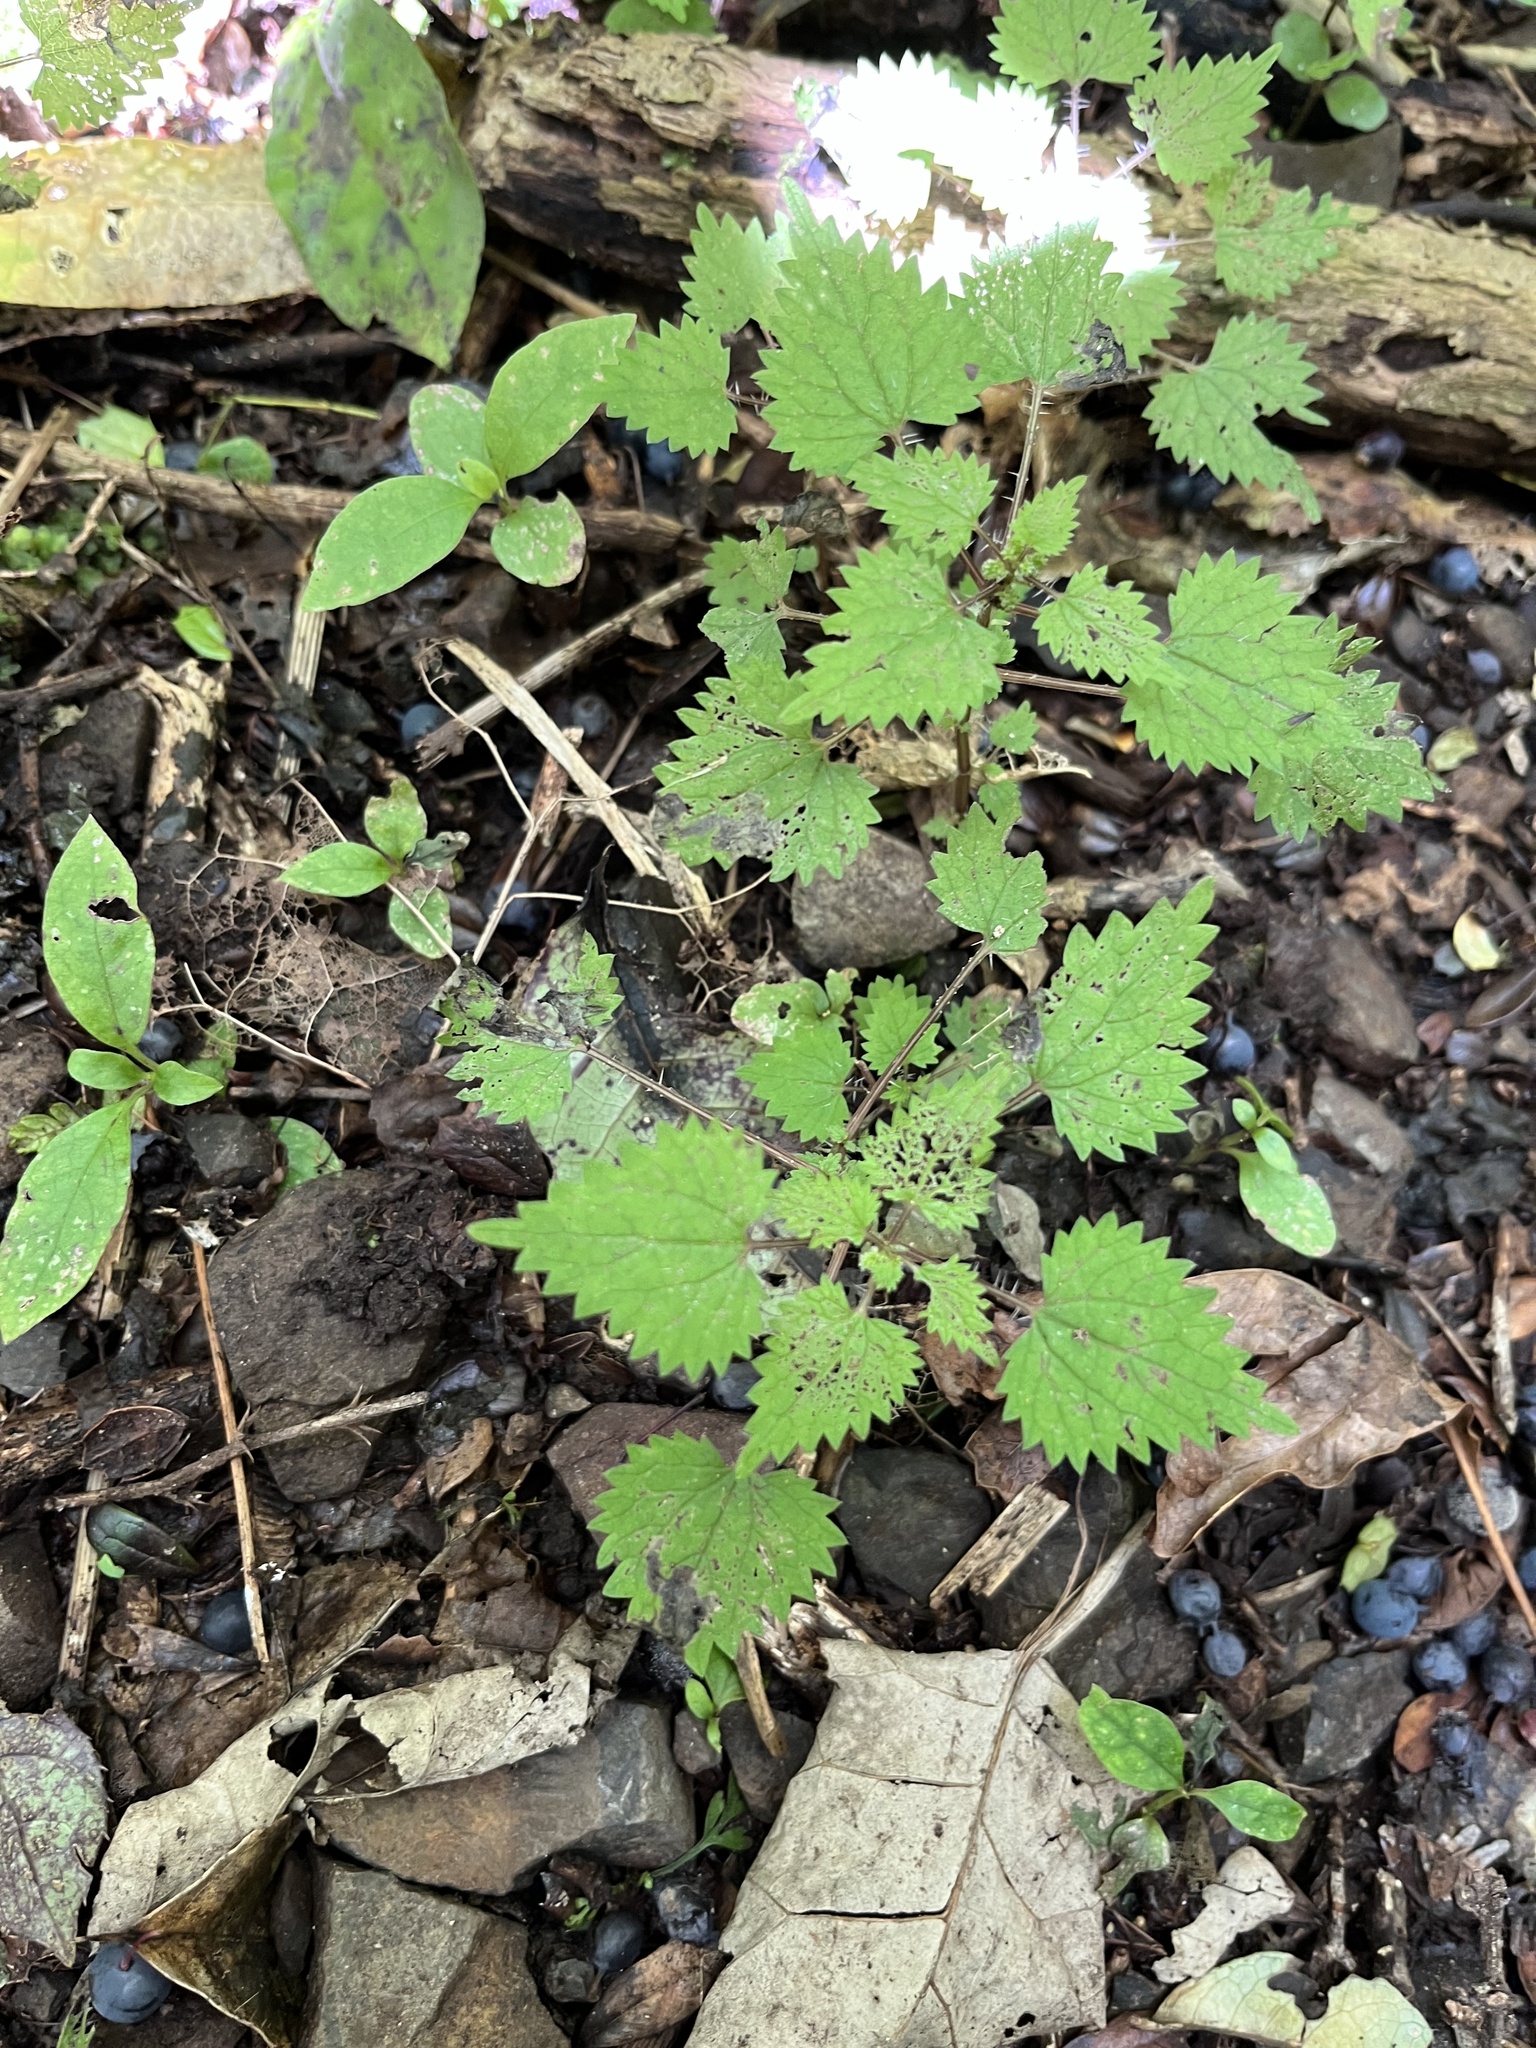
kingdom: Plantae
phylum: Tracheophyta
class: Magnoliopsida
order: Rosales
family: Urticaceae
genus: Urtica
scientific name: Urtica sykesii
